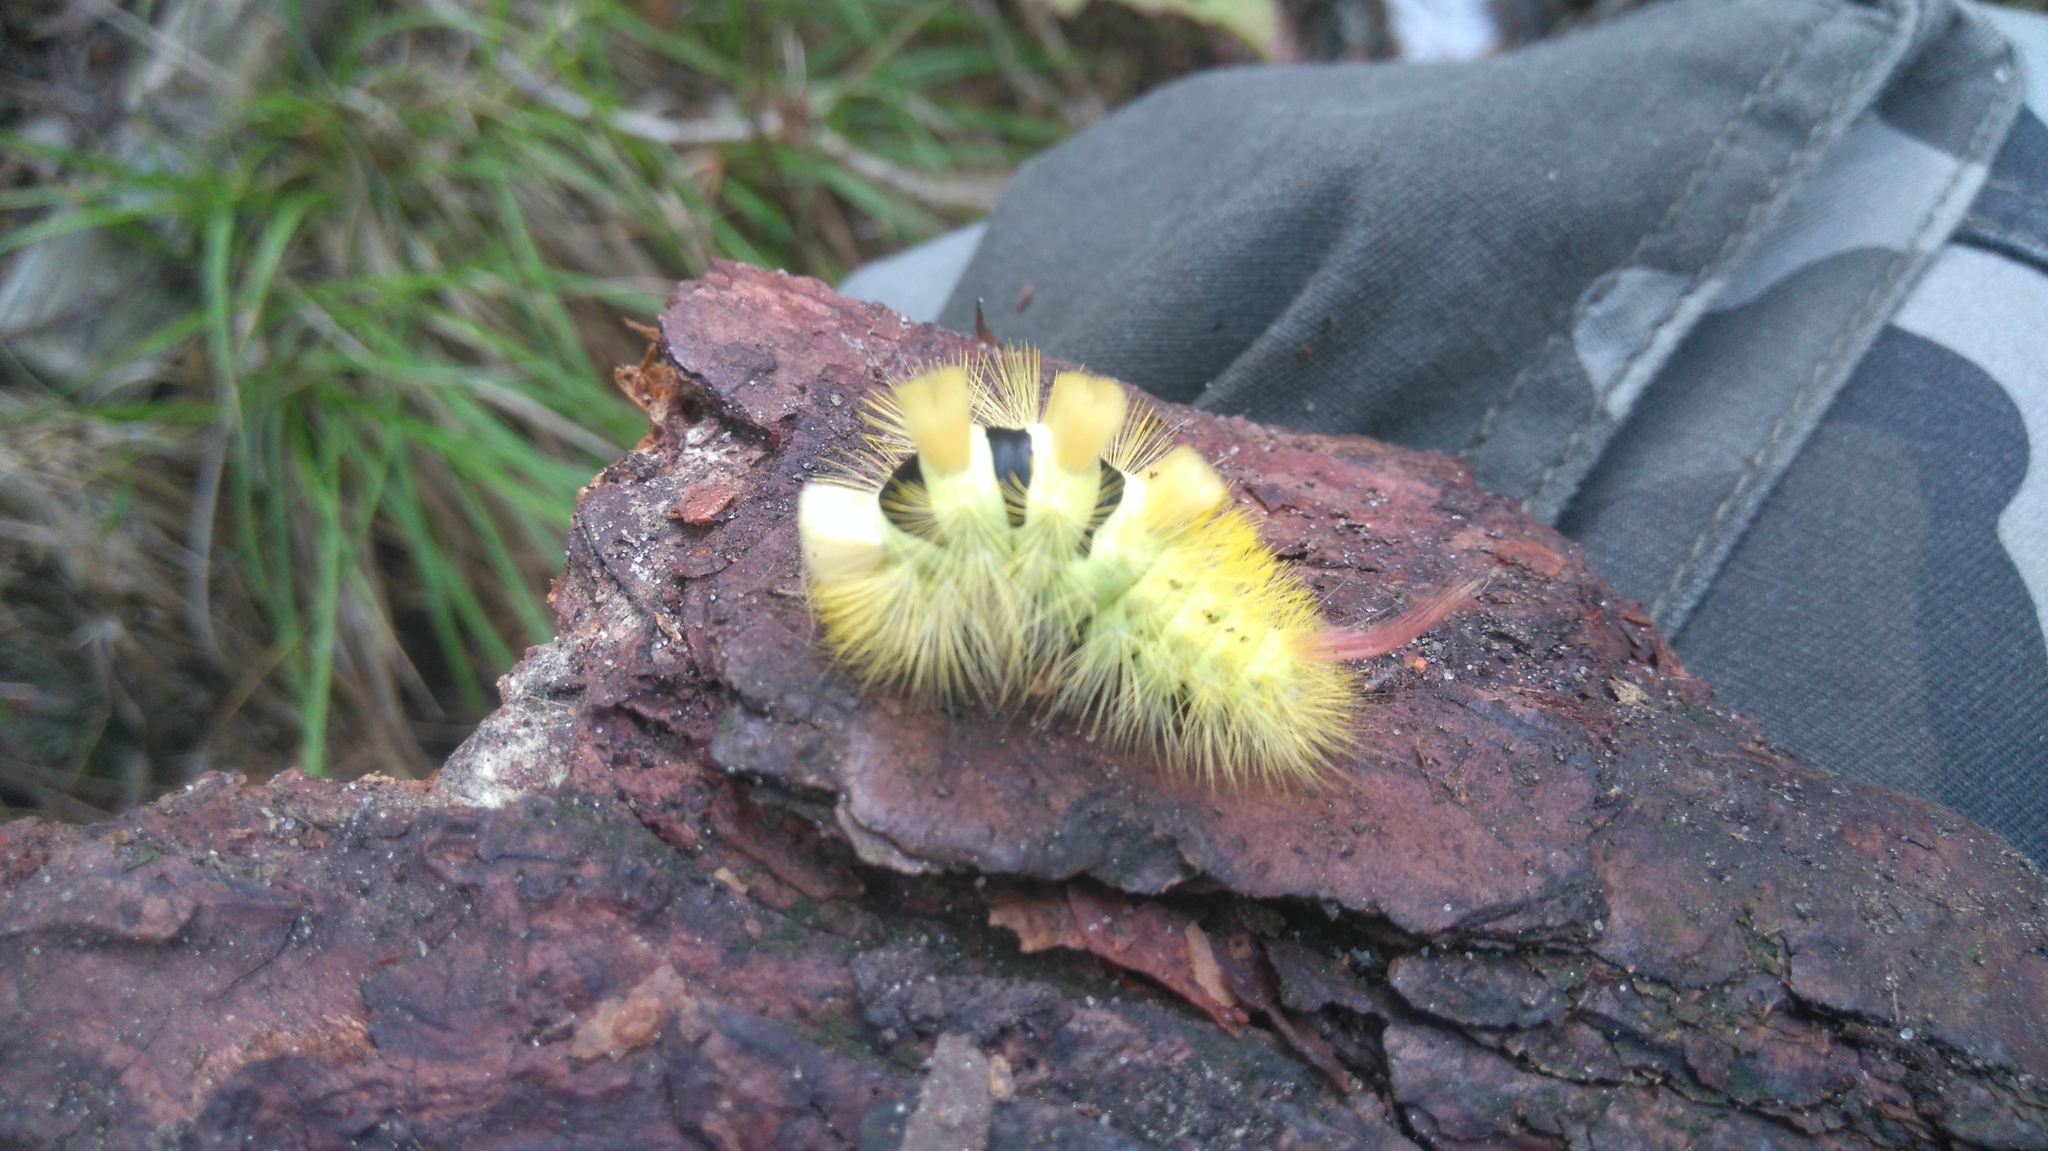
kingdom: Animalia
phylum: Arthropoda
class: Insecta
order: Lepidoptera
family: Erebidae
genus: Calliteara
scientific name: Calliteara pudibunda
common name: Pale tussock
